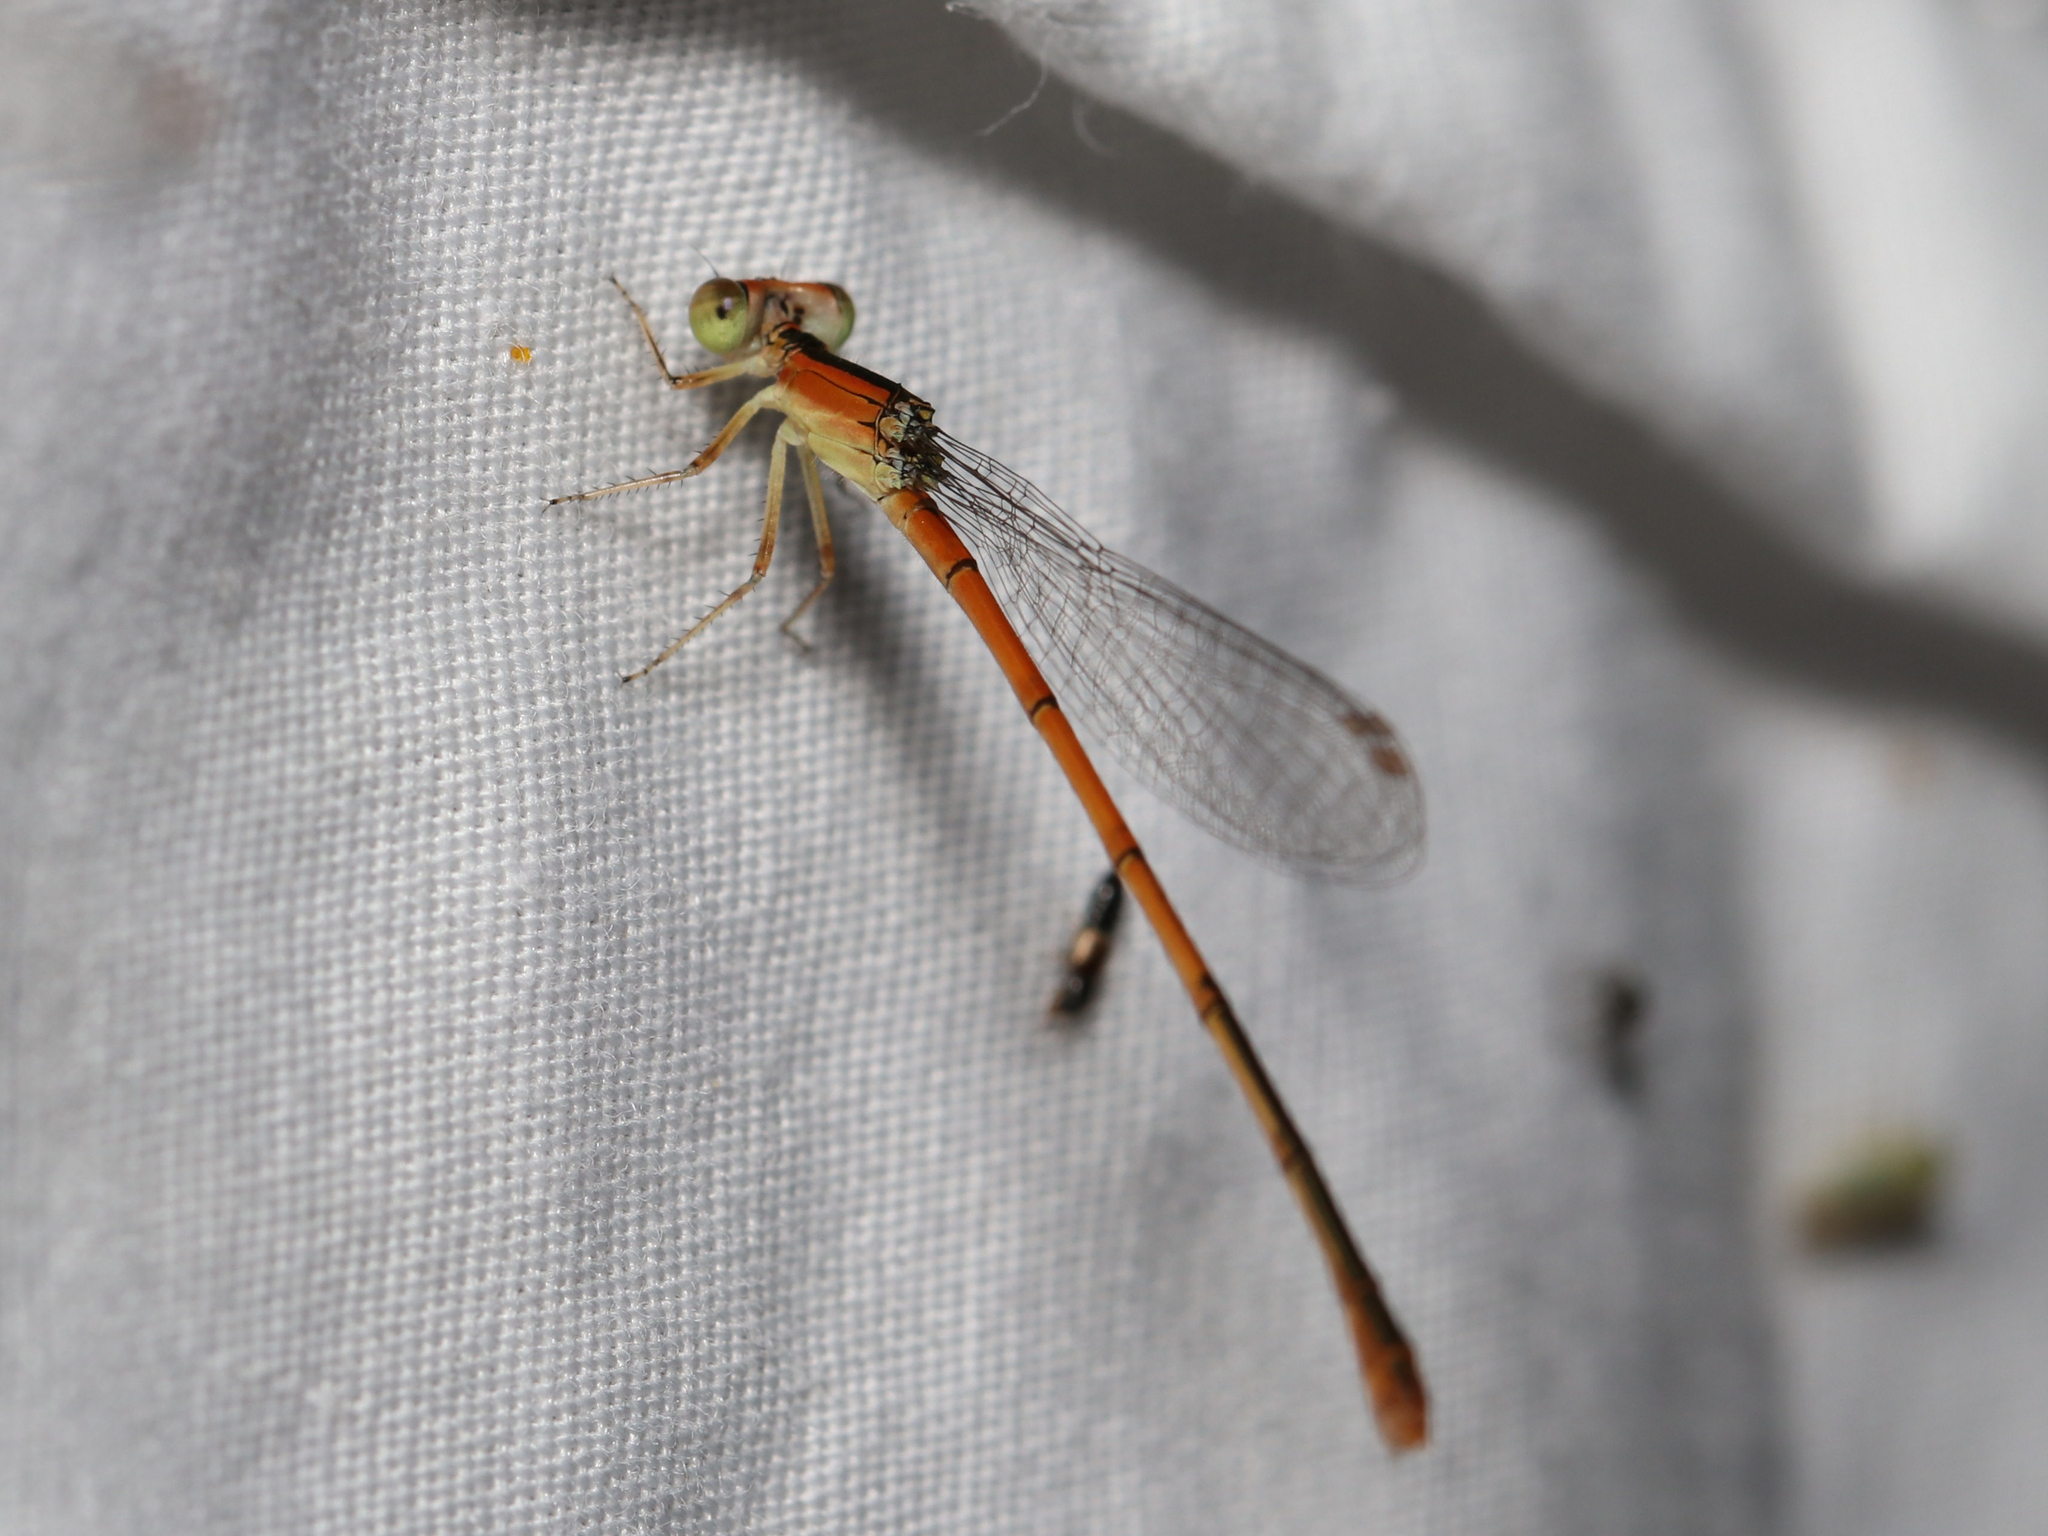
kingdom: Animalia
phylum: Arthropoda
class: Insecta
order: Odonata
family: Coenagrionidae
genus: Ischnura
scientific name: Ischnura hastata
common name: Citrine forktail
